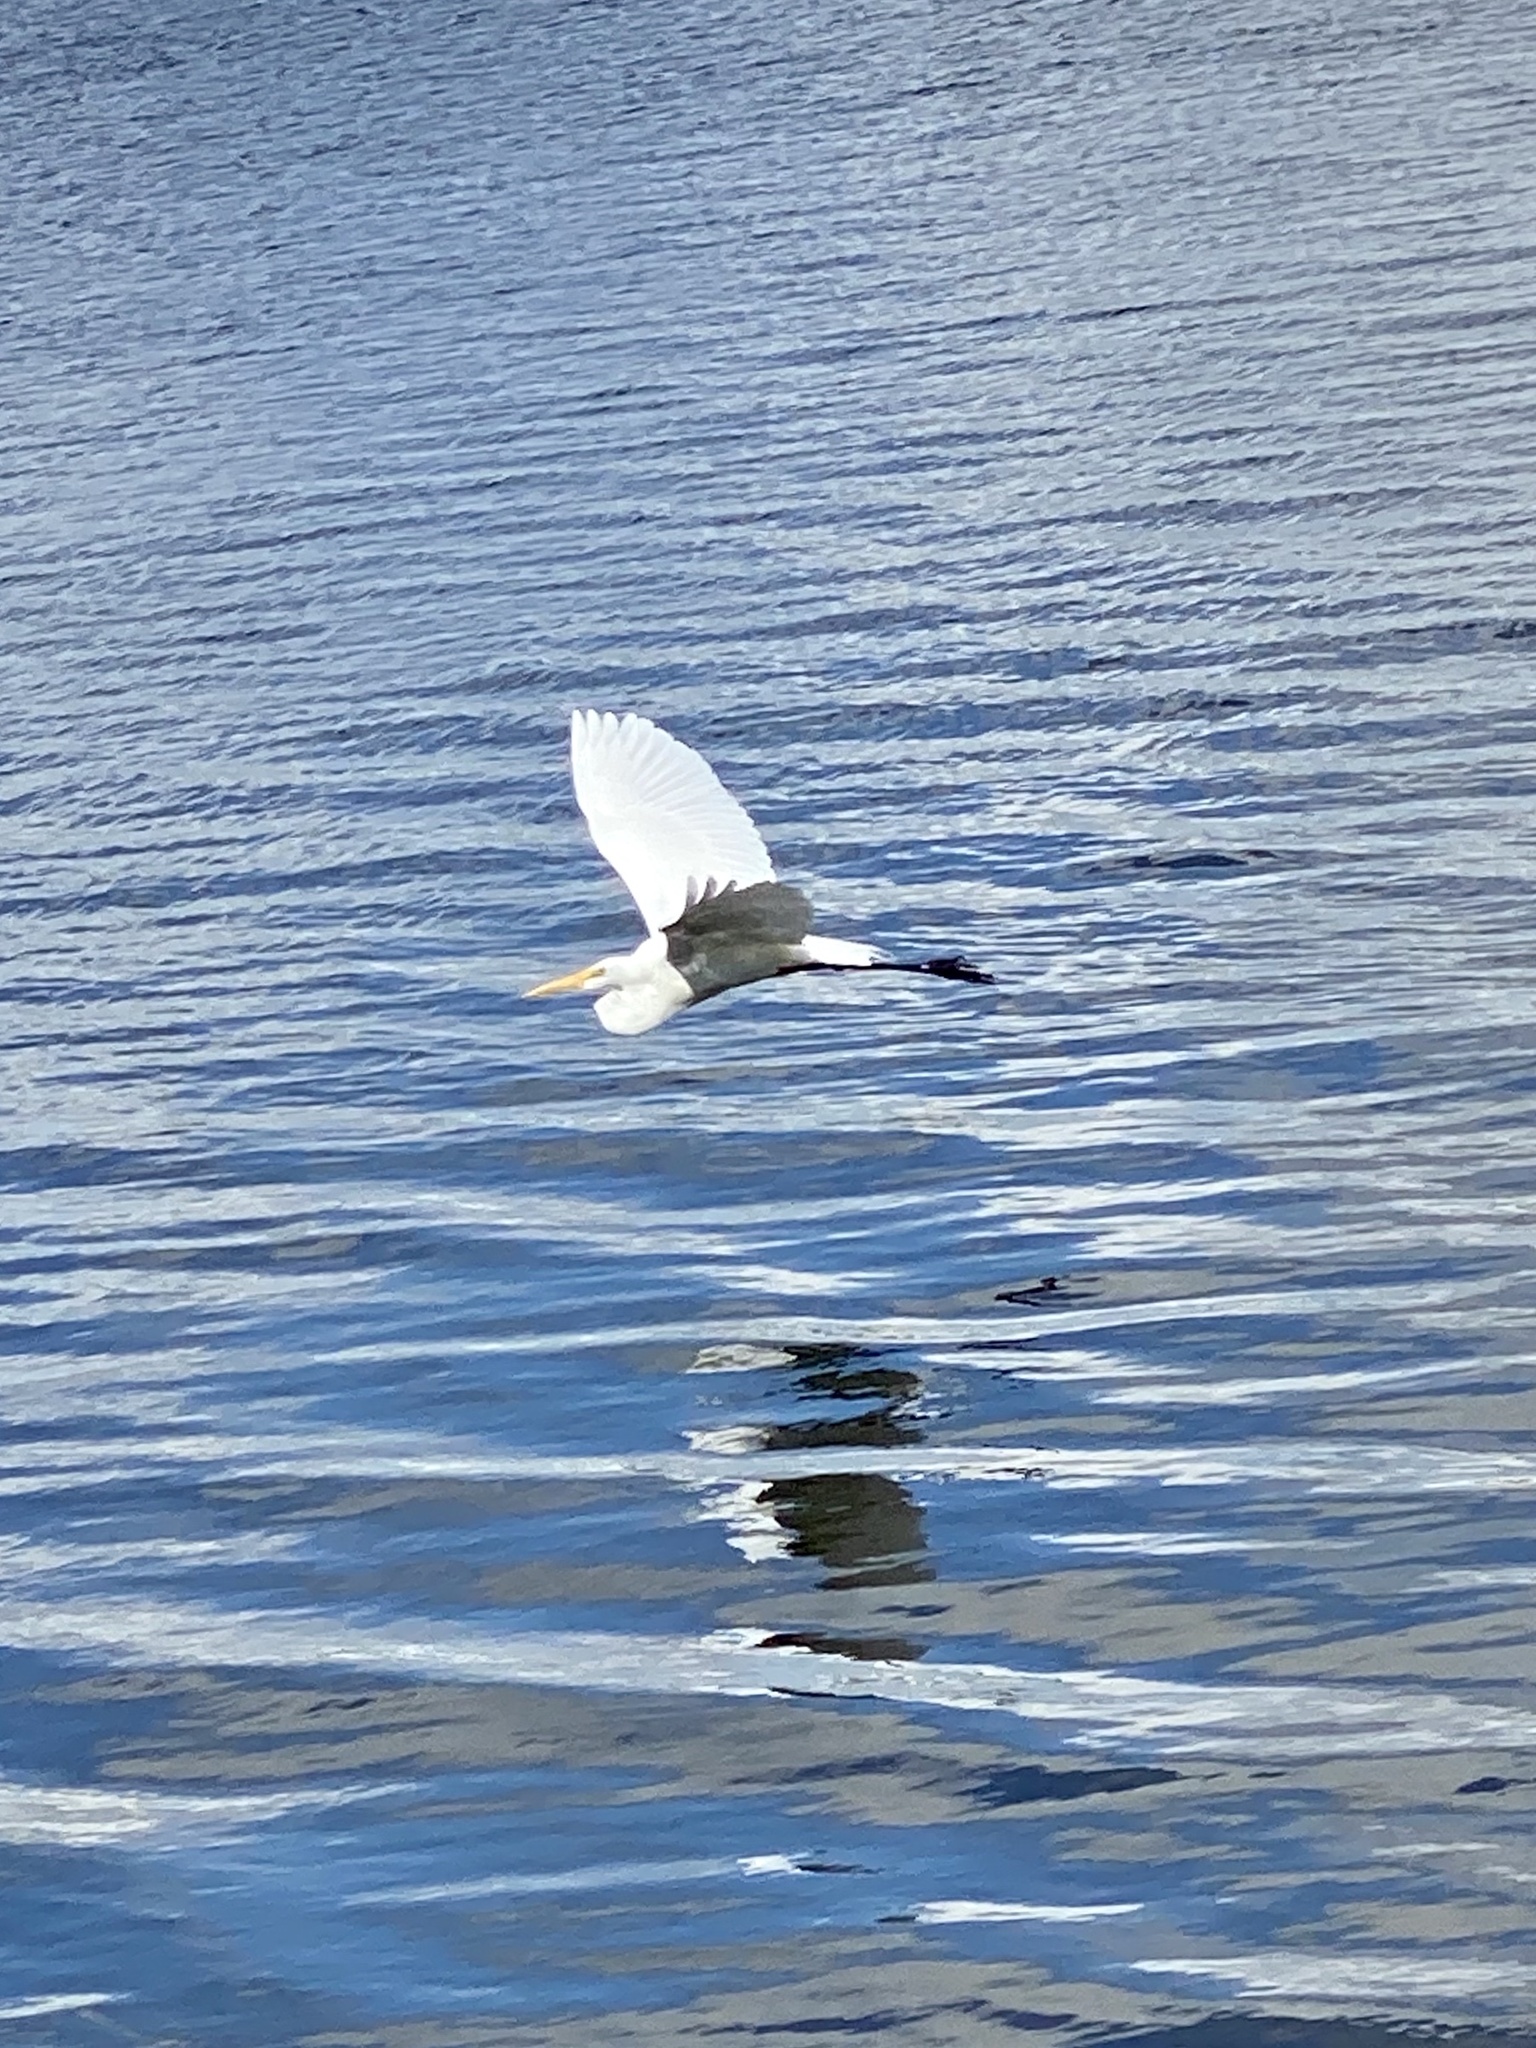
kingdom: Animalia
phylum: Chordata
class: Aves
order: Pelecaniformes
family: Ardeidae
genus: Ardea
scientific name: Ardea alba
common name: Great egret
